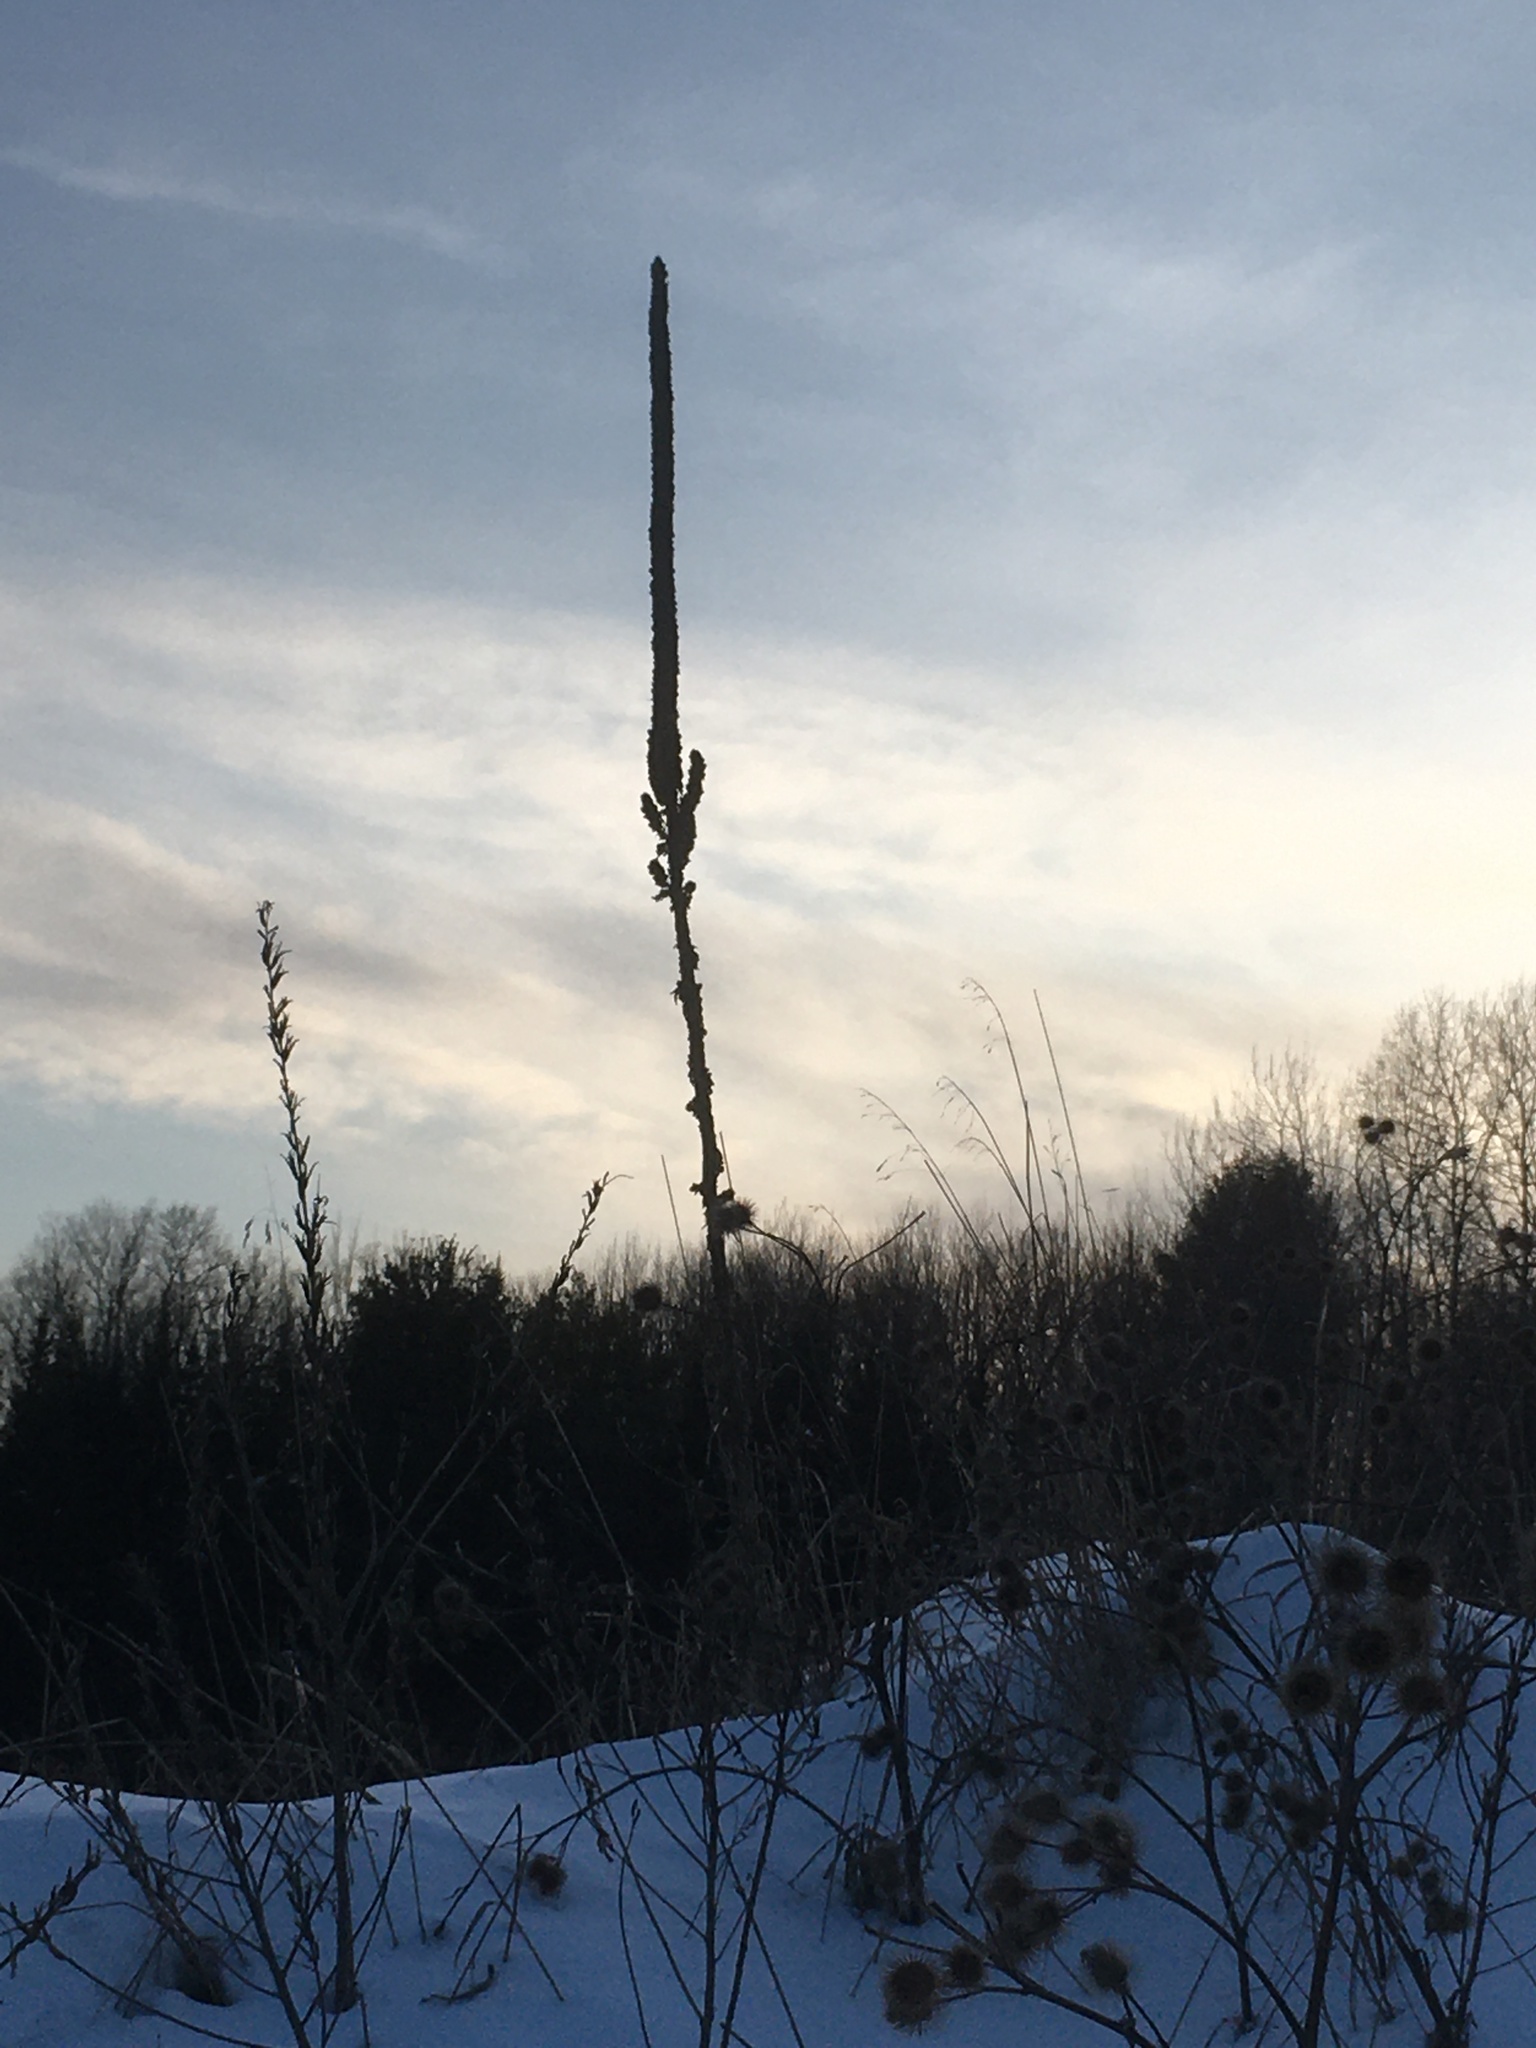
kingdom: Plantae
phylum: Tracheophyta
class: Magnoliopsida
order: Lamiales
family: Scrophulariaceae
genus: Verbascum
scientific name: Verbascum thapsus
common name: Common mullein
